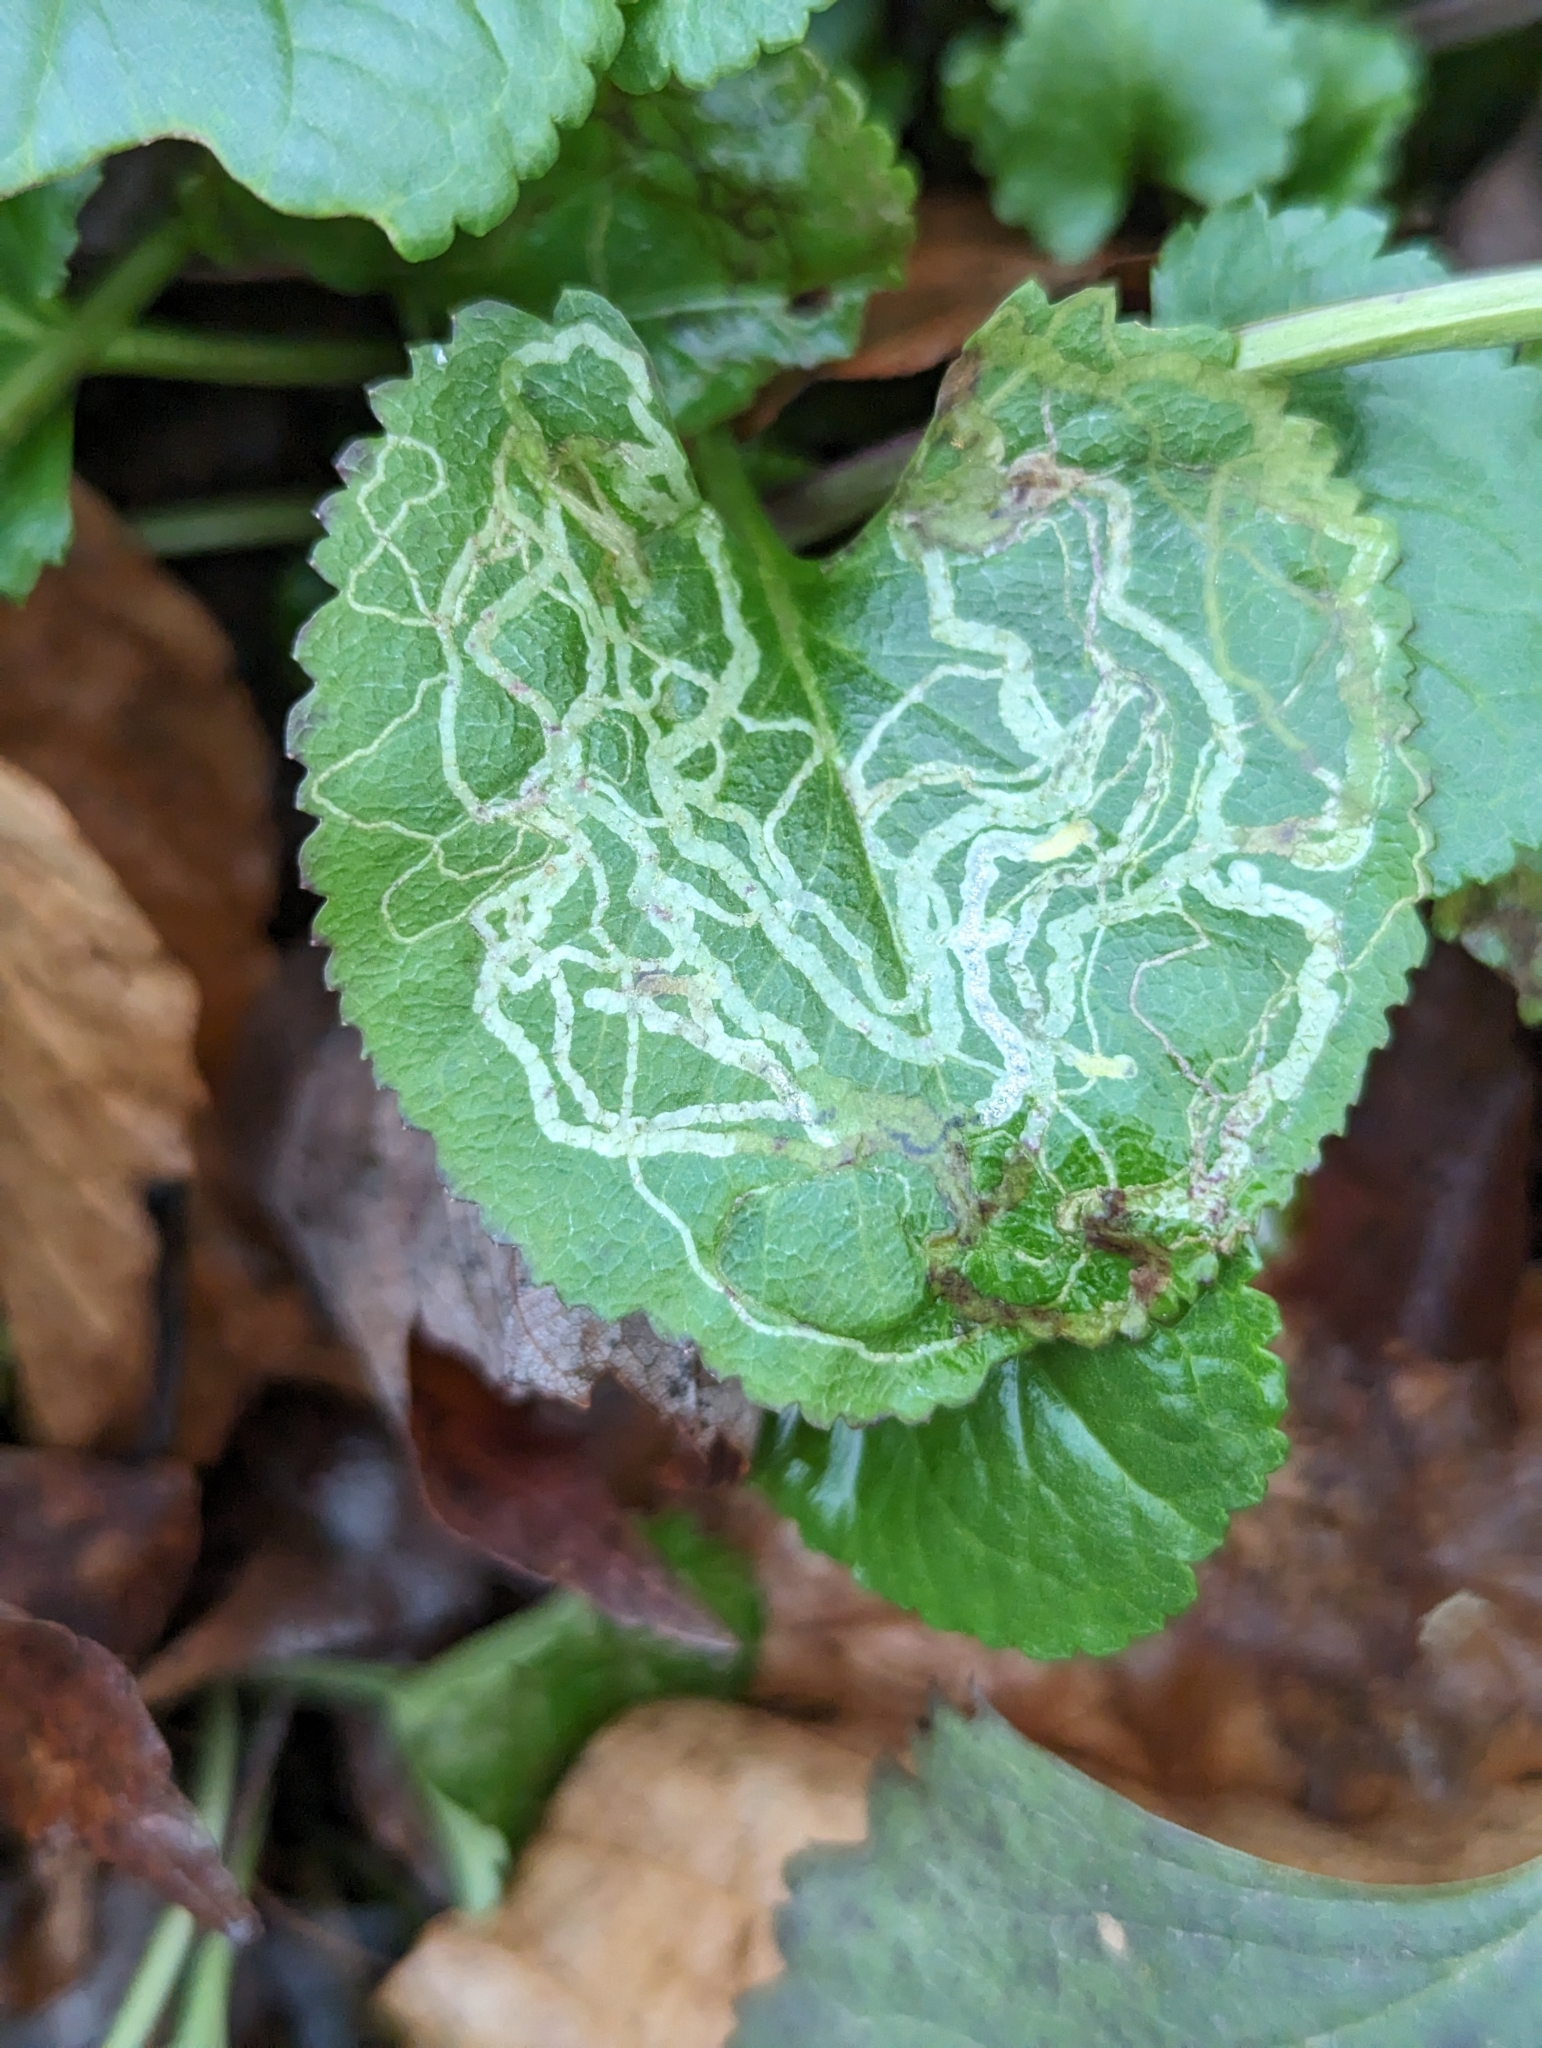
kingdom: Animalia
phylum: Arthropoda
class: Insecta
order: Lepidoptera
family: Gracillariidae
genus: Phyllocnistis
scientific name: Phyllocnistis insignis
